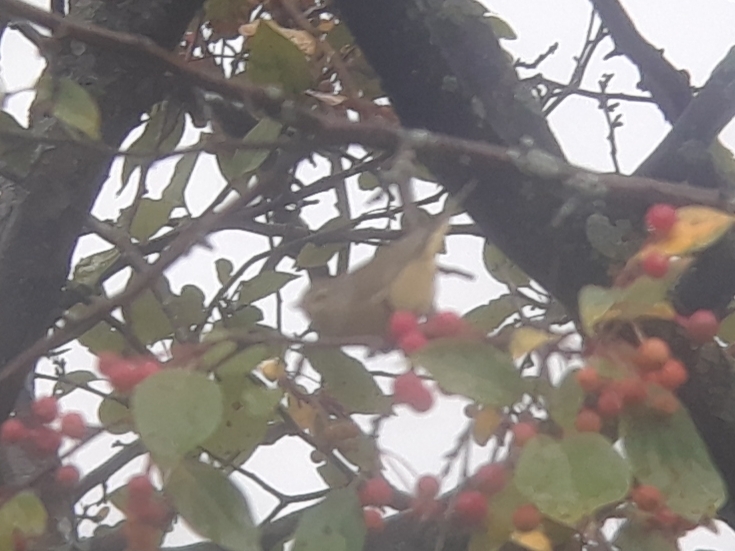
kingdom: Animalia
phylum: Chordata
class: Aves
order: Passeriformes
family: Parulidae
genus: Leiothlypis
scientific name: Leiothlypis celata
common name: Orange-crowned warbler
